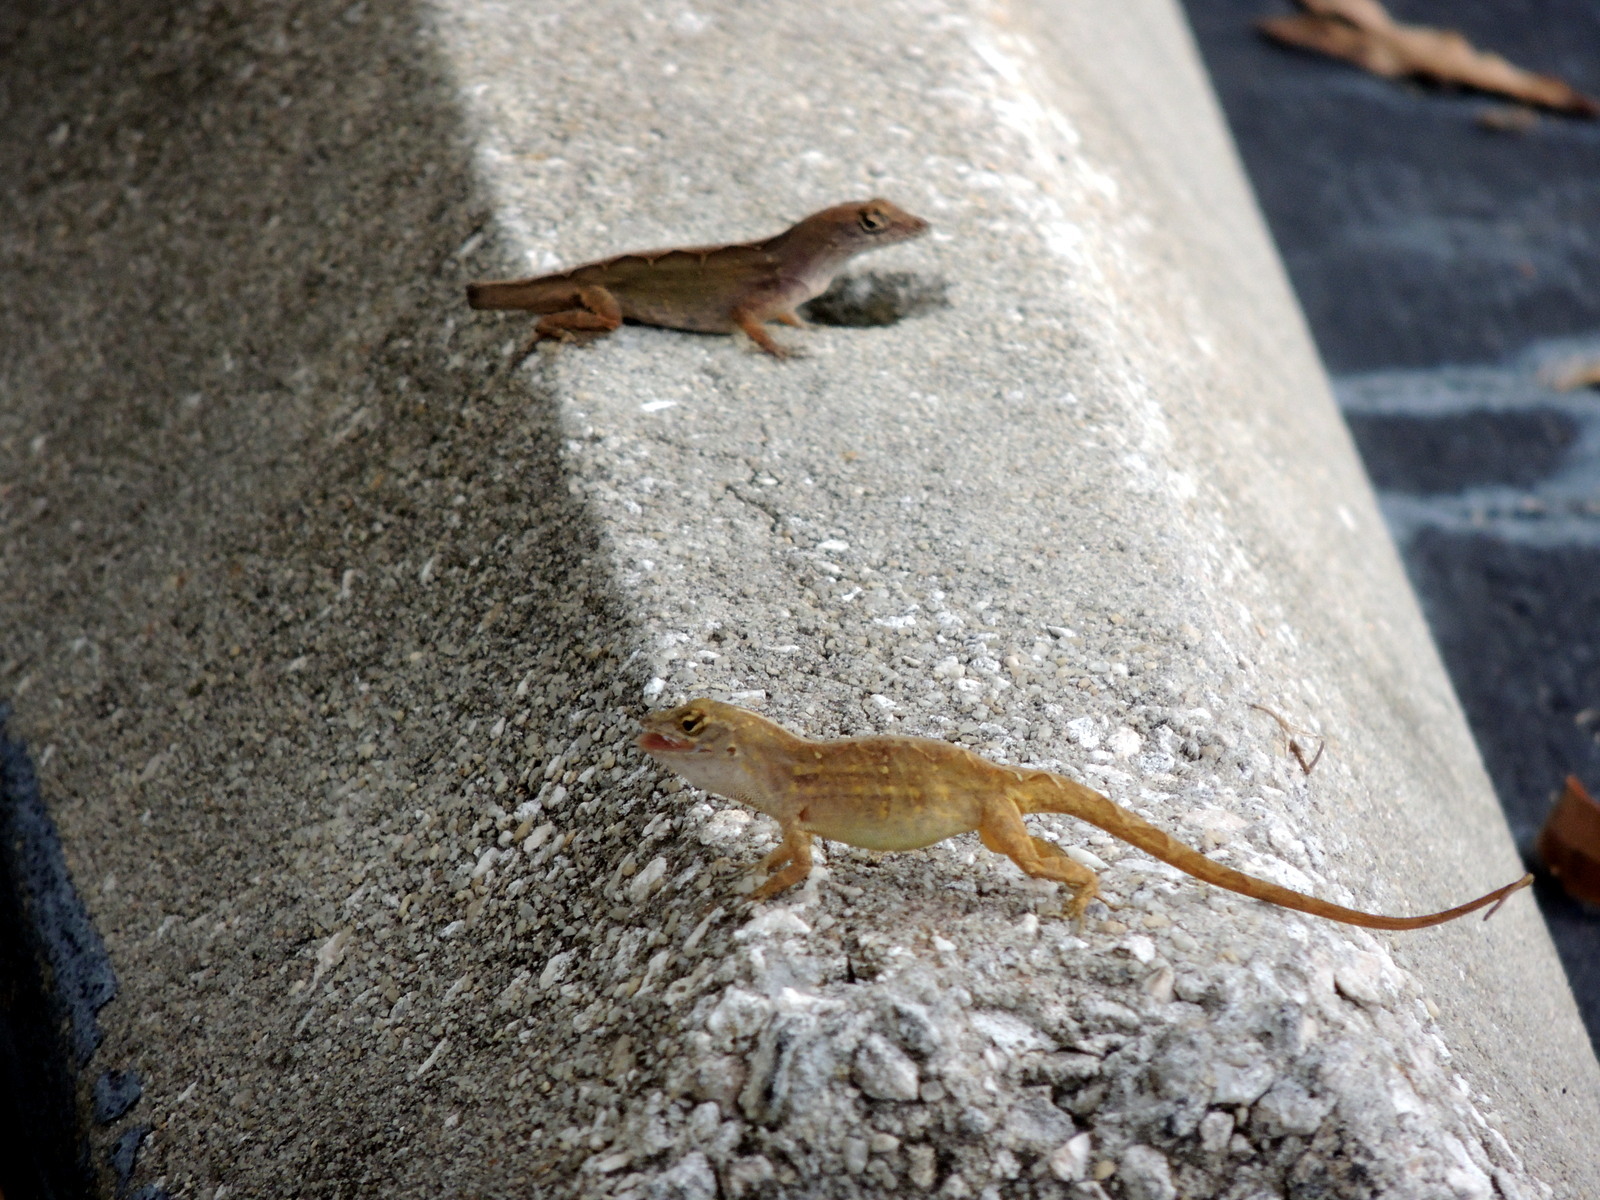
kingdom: Animalia
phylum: Chordata
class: Squamata
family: Dactyloidae
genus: Anolis
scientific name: Anolis sagrei
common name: Brown anole
